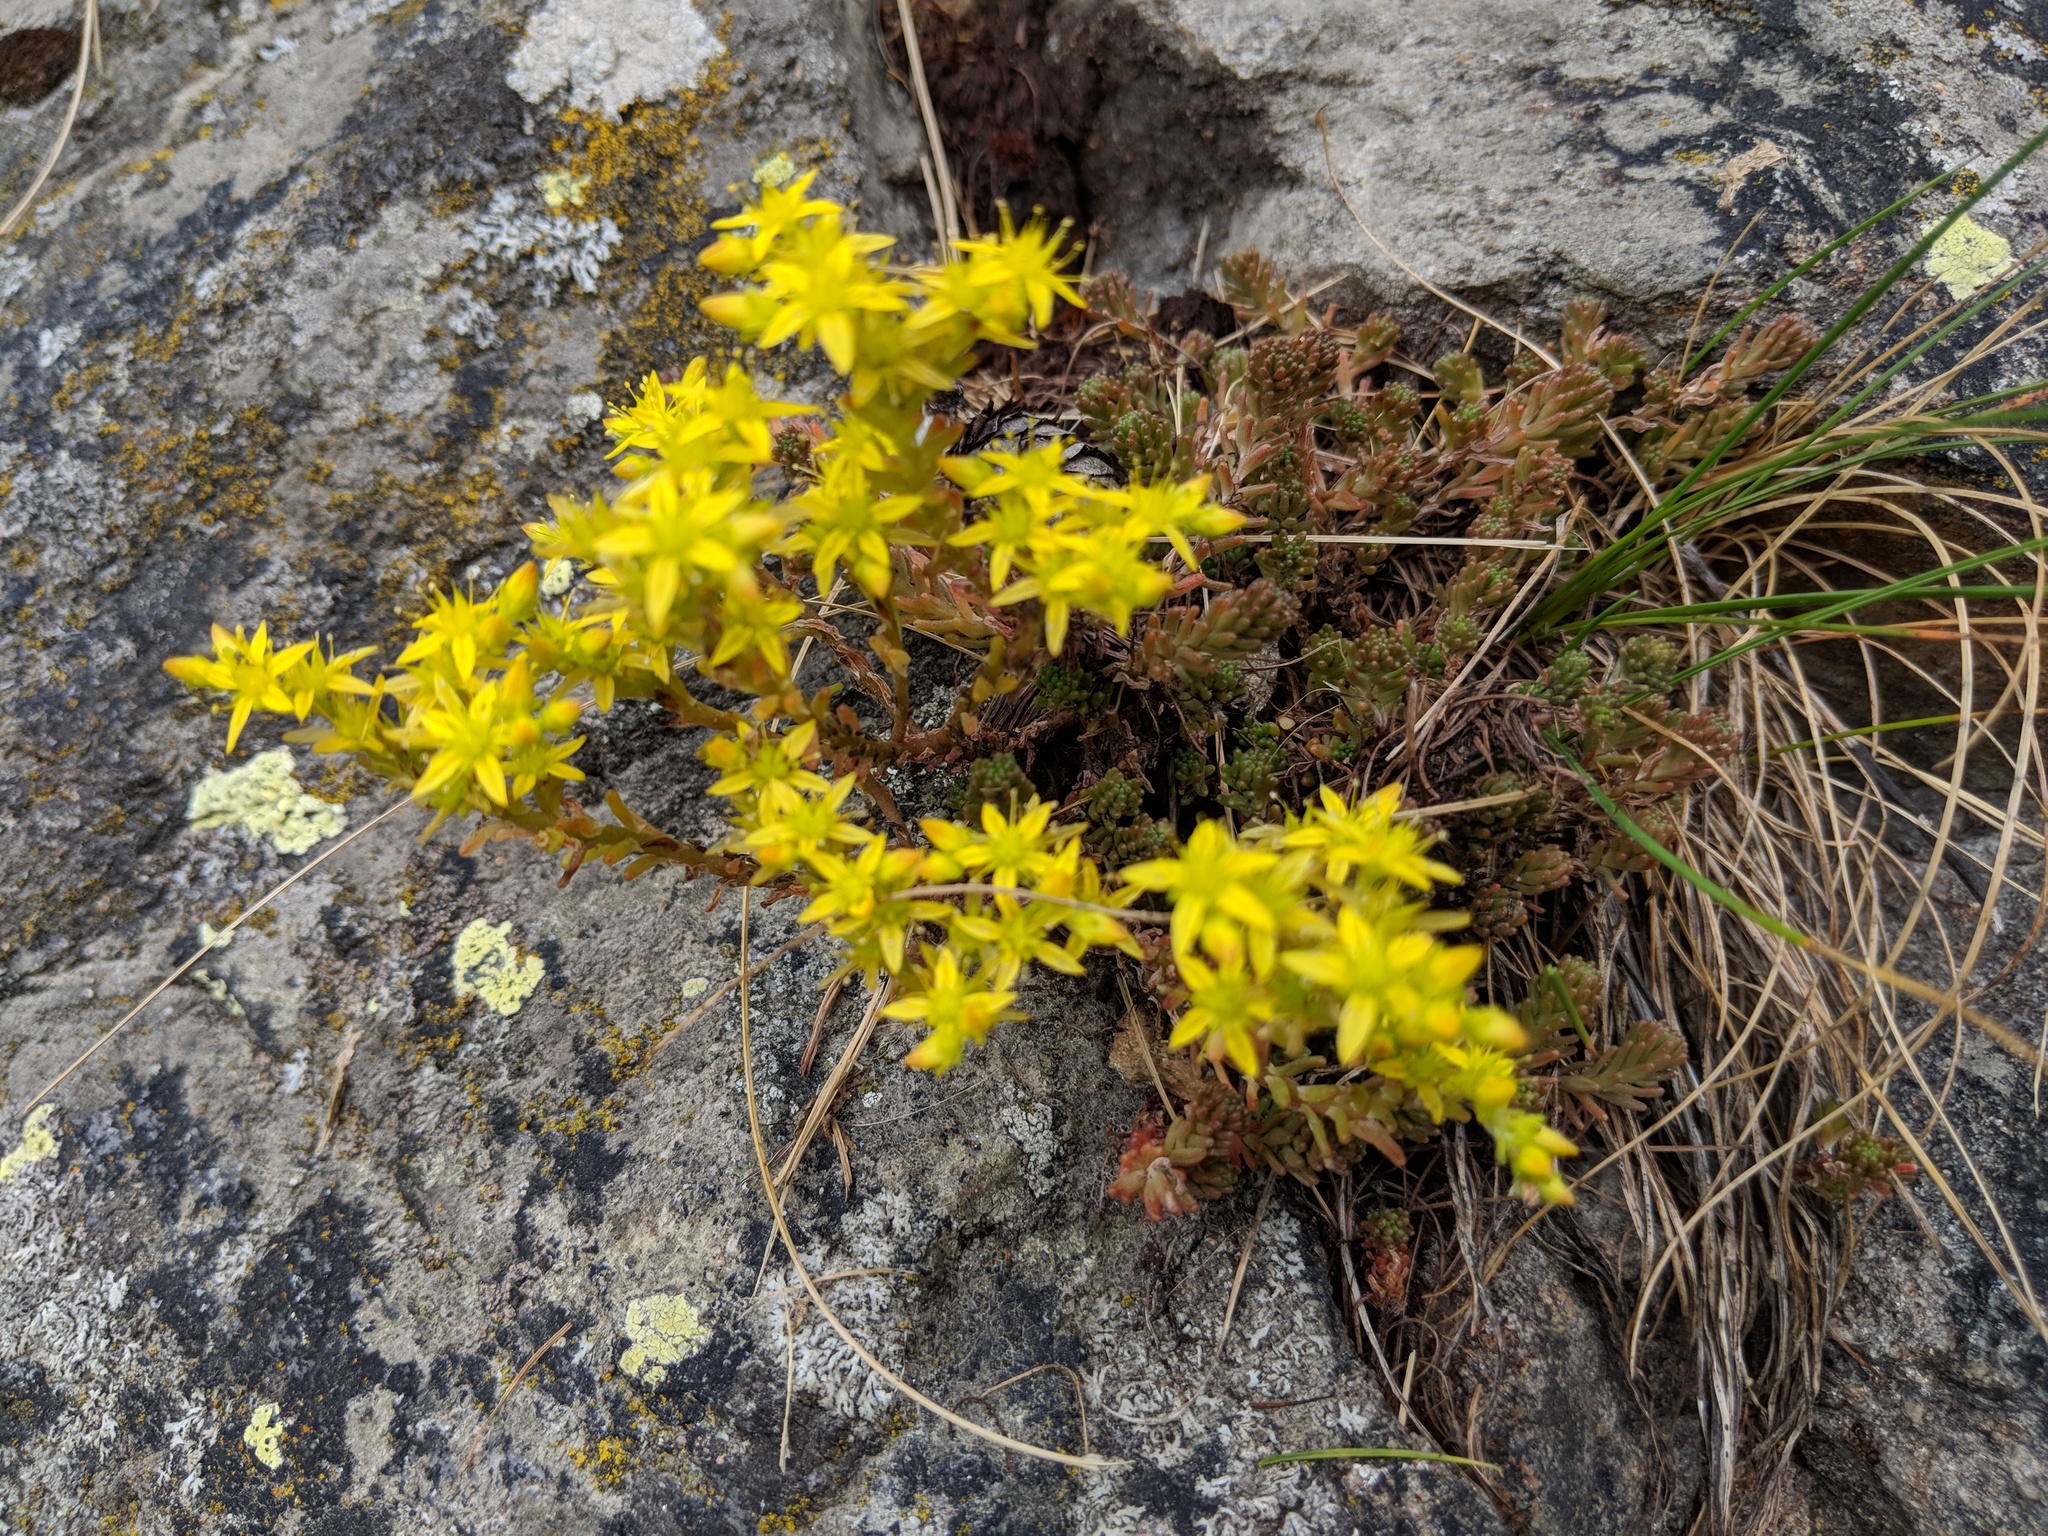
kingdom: Plantae
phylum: Tracheophyta
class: Magnoliopsida
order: Saxifragales
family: Crassulaceae
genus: Sedum
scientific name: Sedum sexangulare
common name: Tasteless stonecrop
